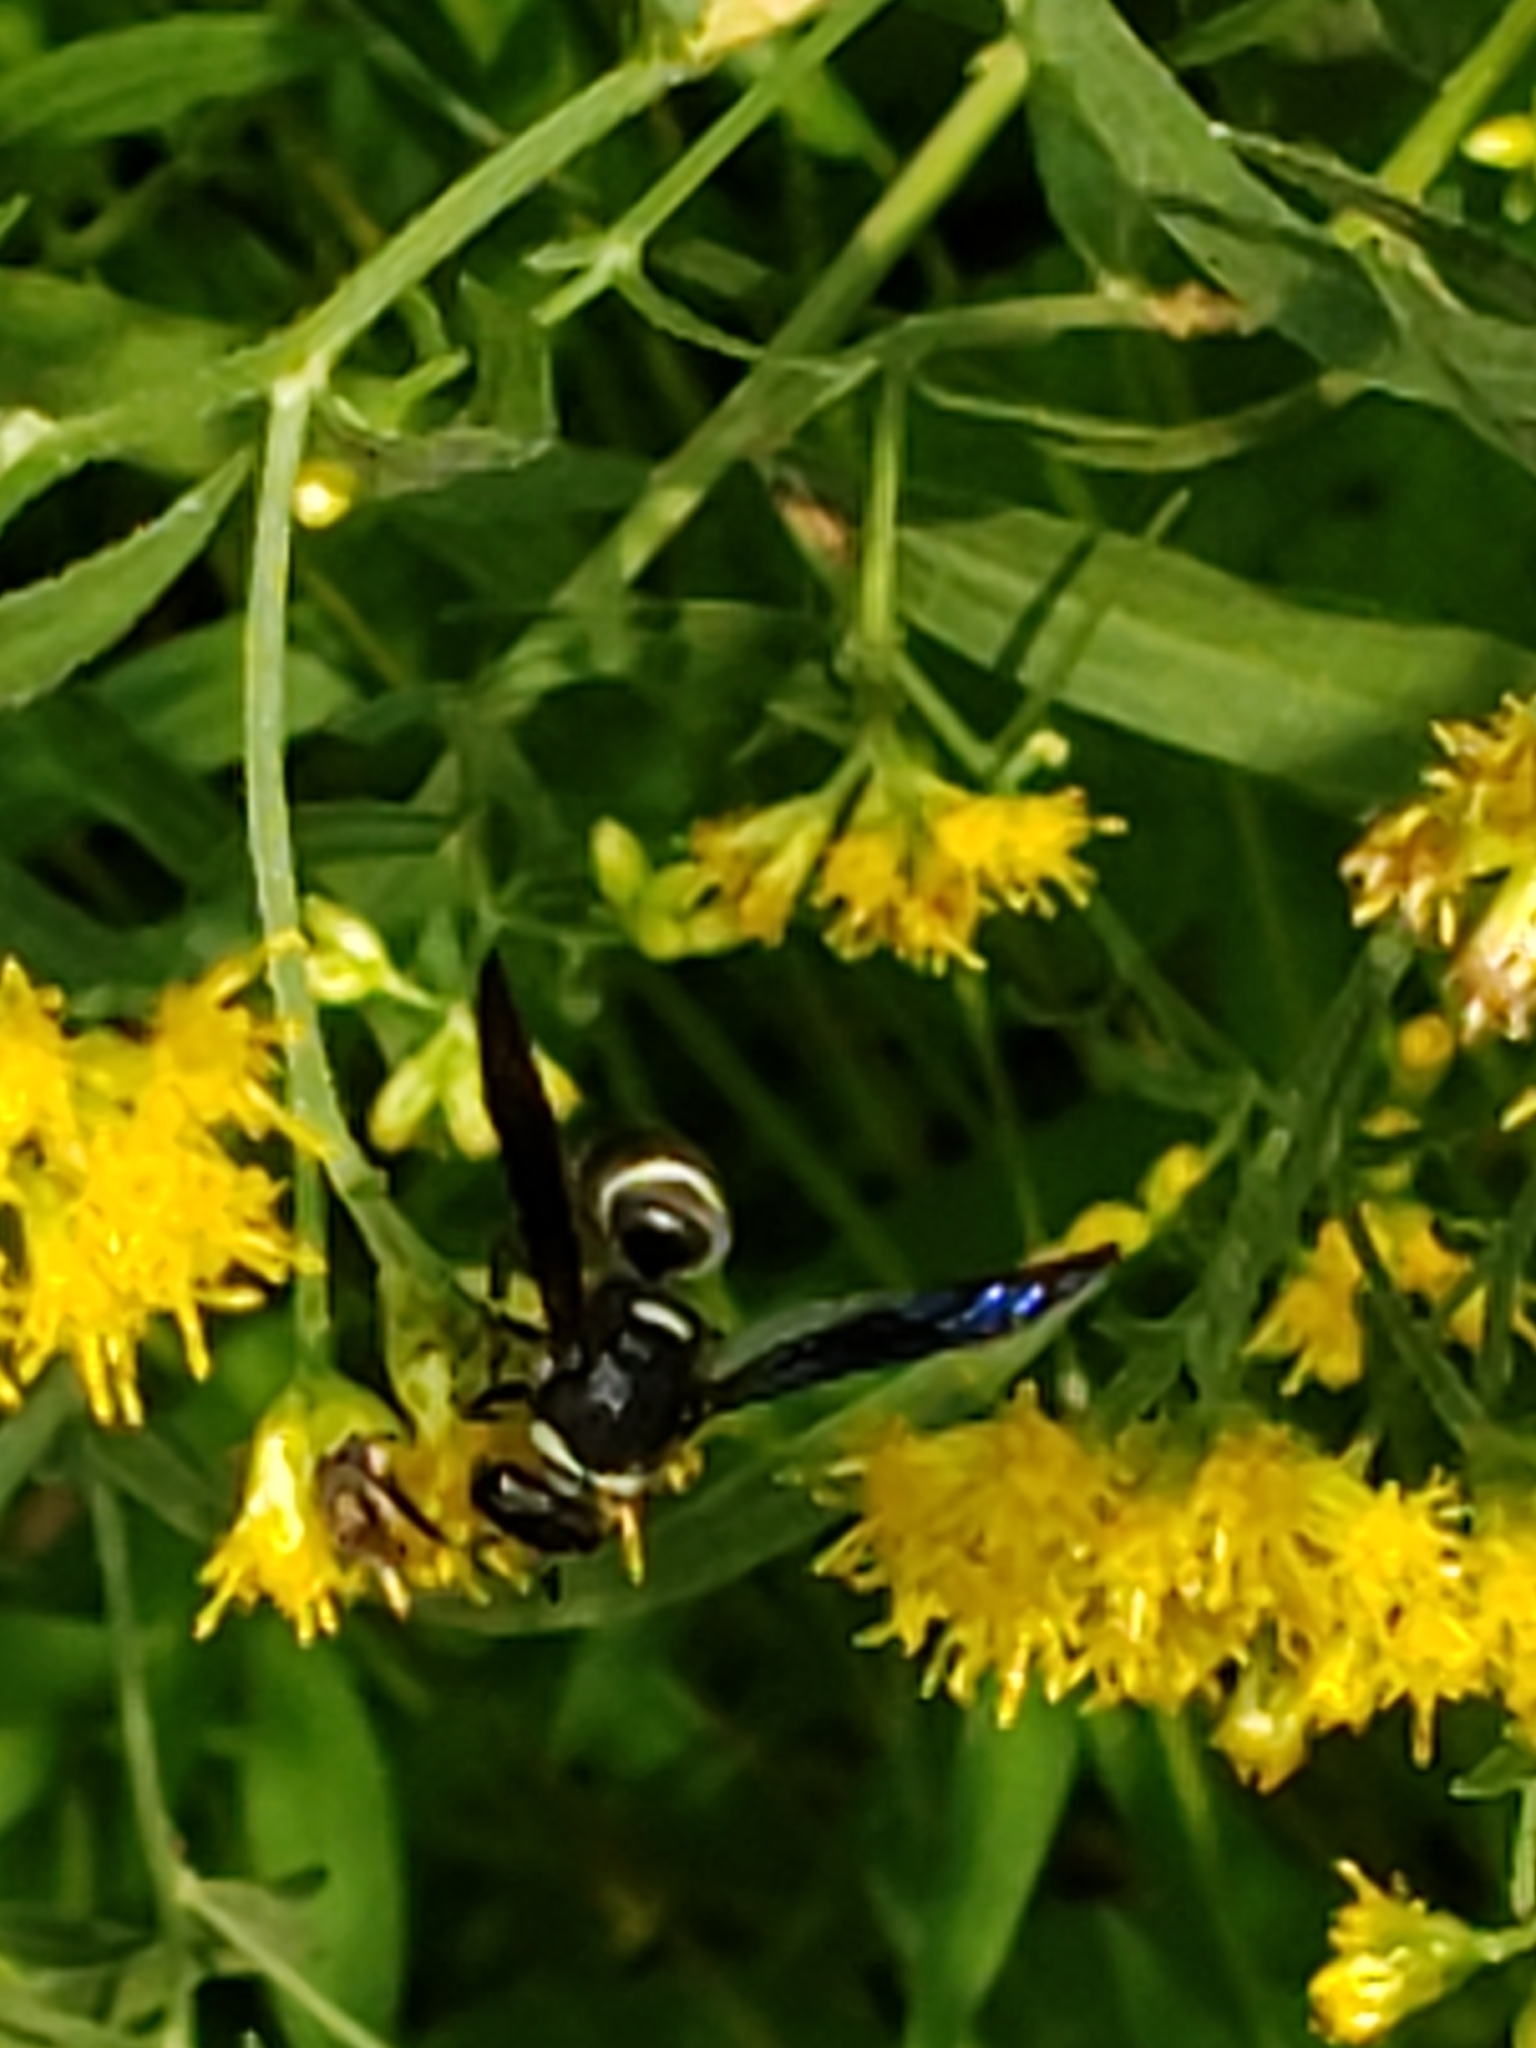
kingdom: Animalia
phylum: Arthropoda
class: Insecta
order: Hymenoptera
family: Eumenidae
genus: Euodynerus
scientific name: Euodynerus schwarzi
